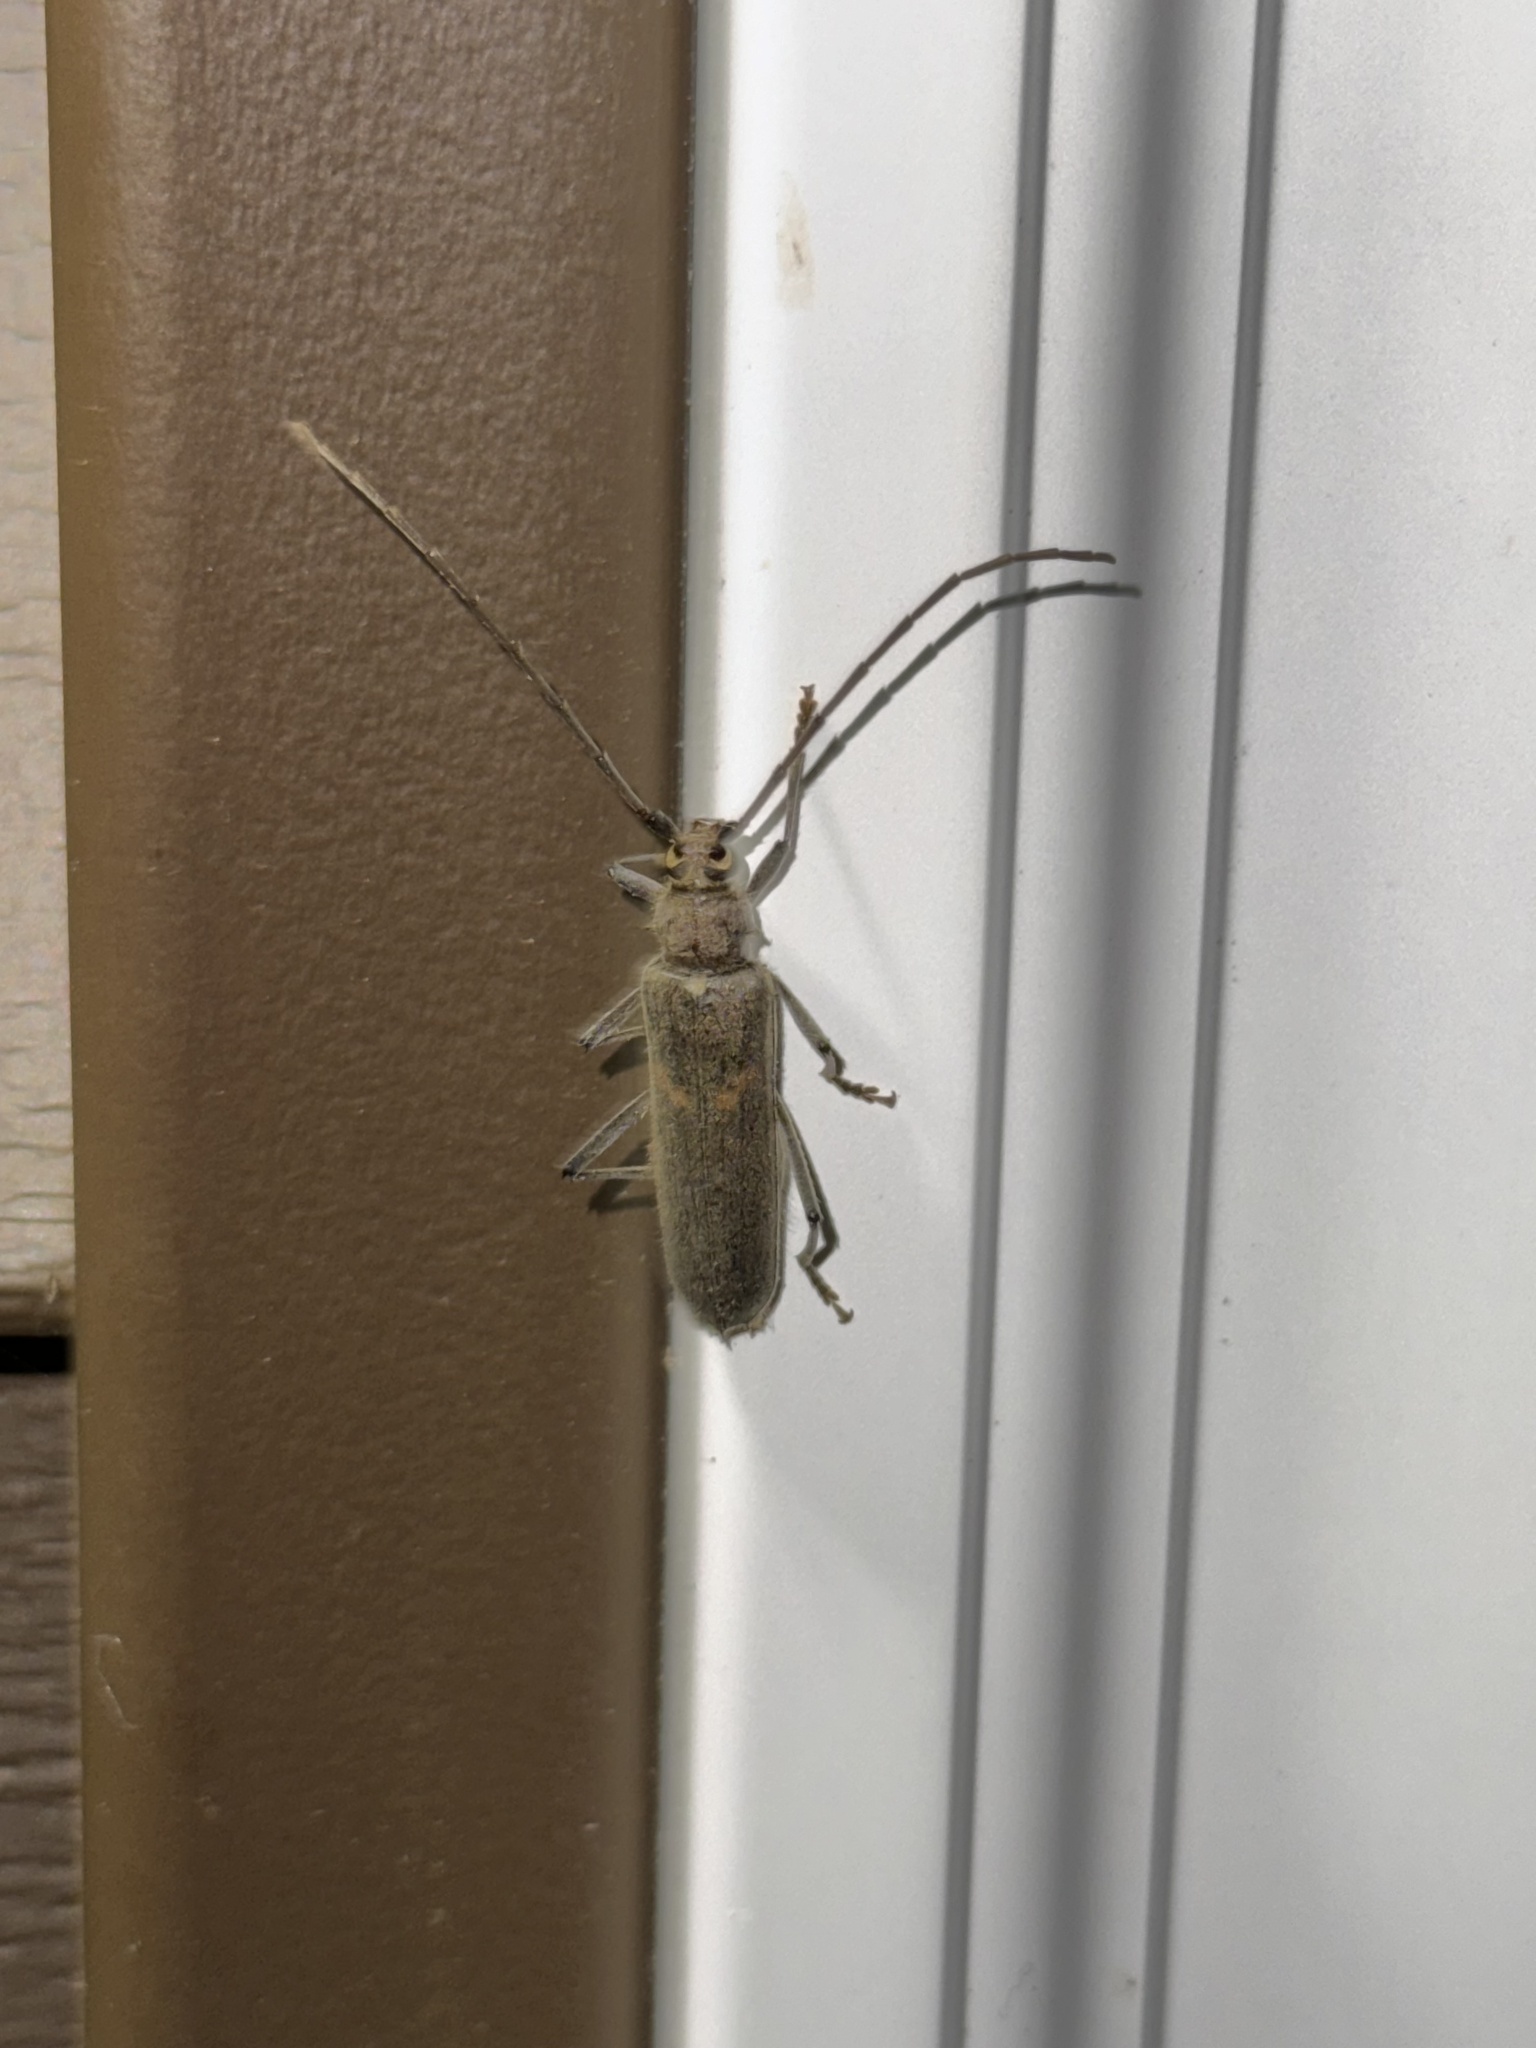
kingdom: Animalia
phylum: Arthropoda
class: Insecta
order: Coleoptera
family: Cerambycidae
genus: Knulliana
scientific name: Knulliana cincta
